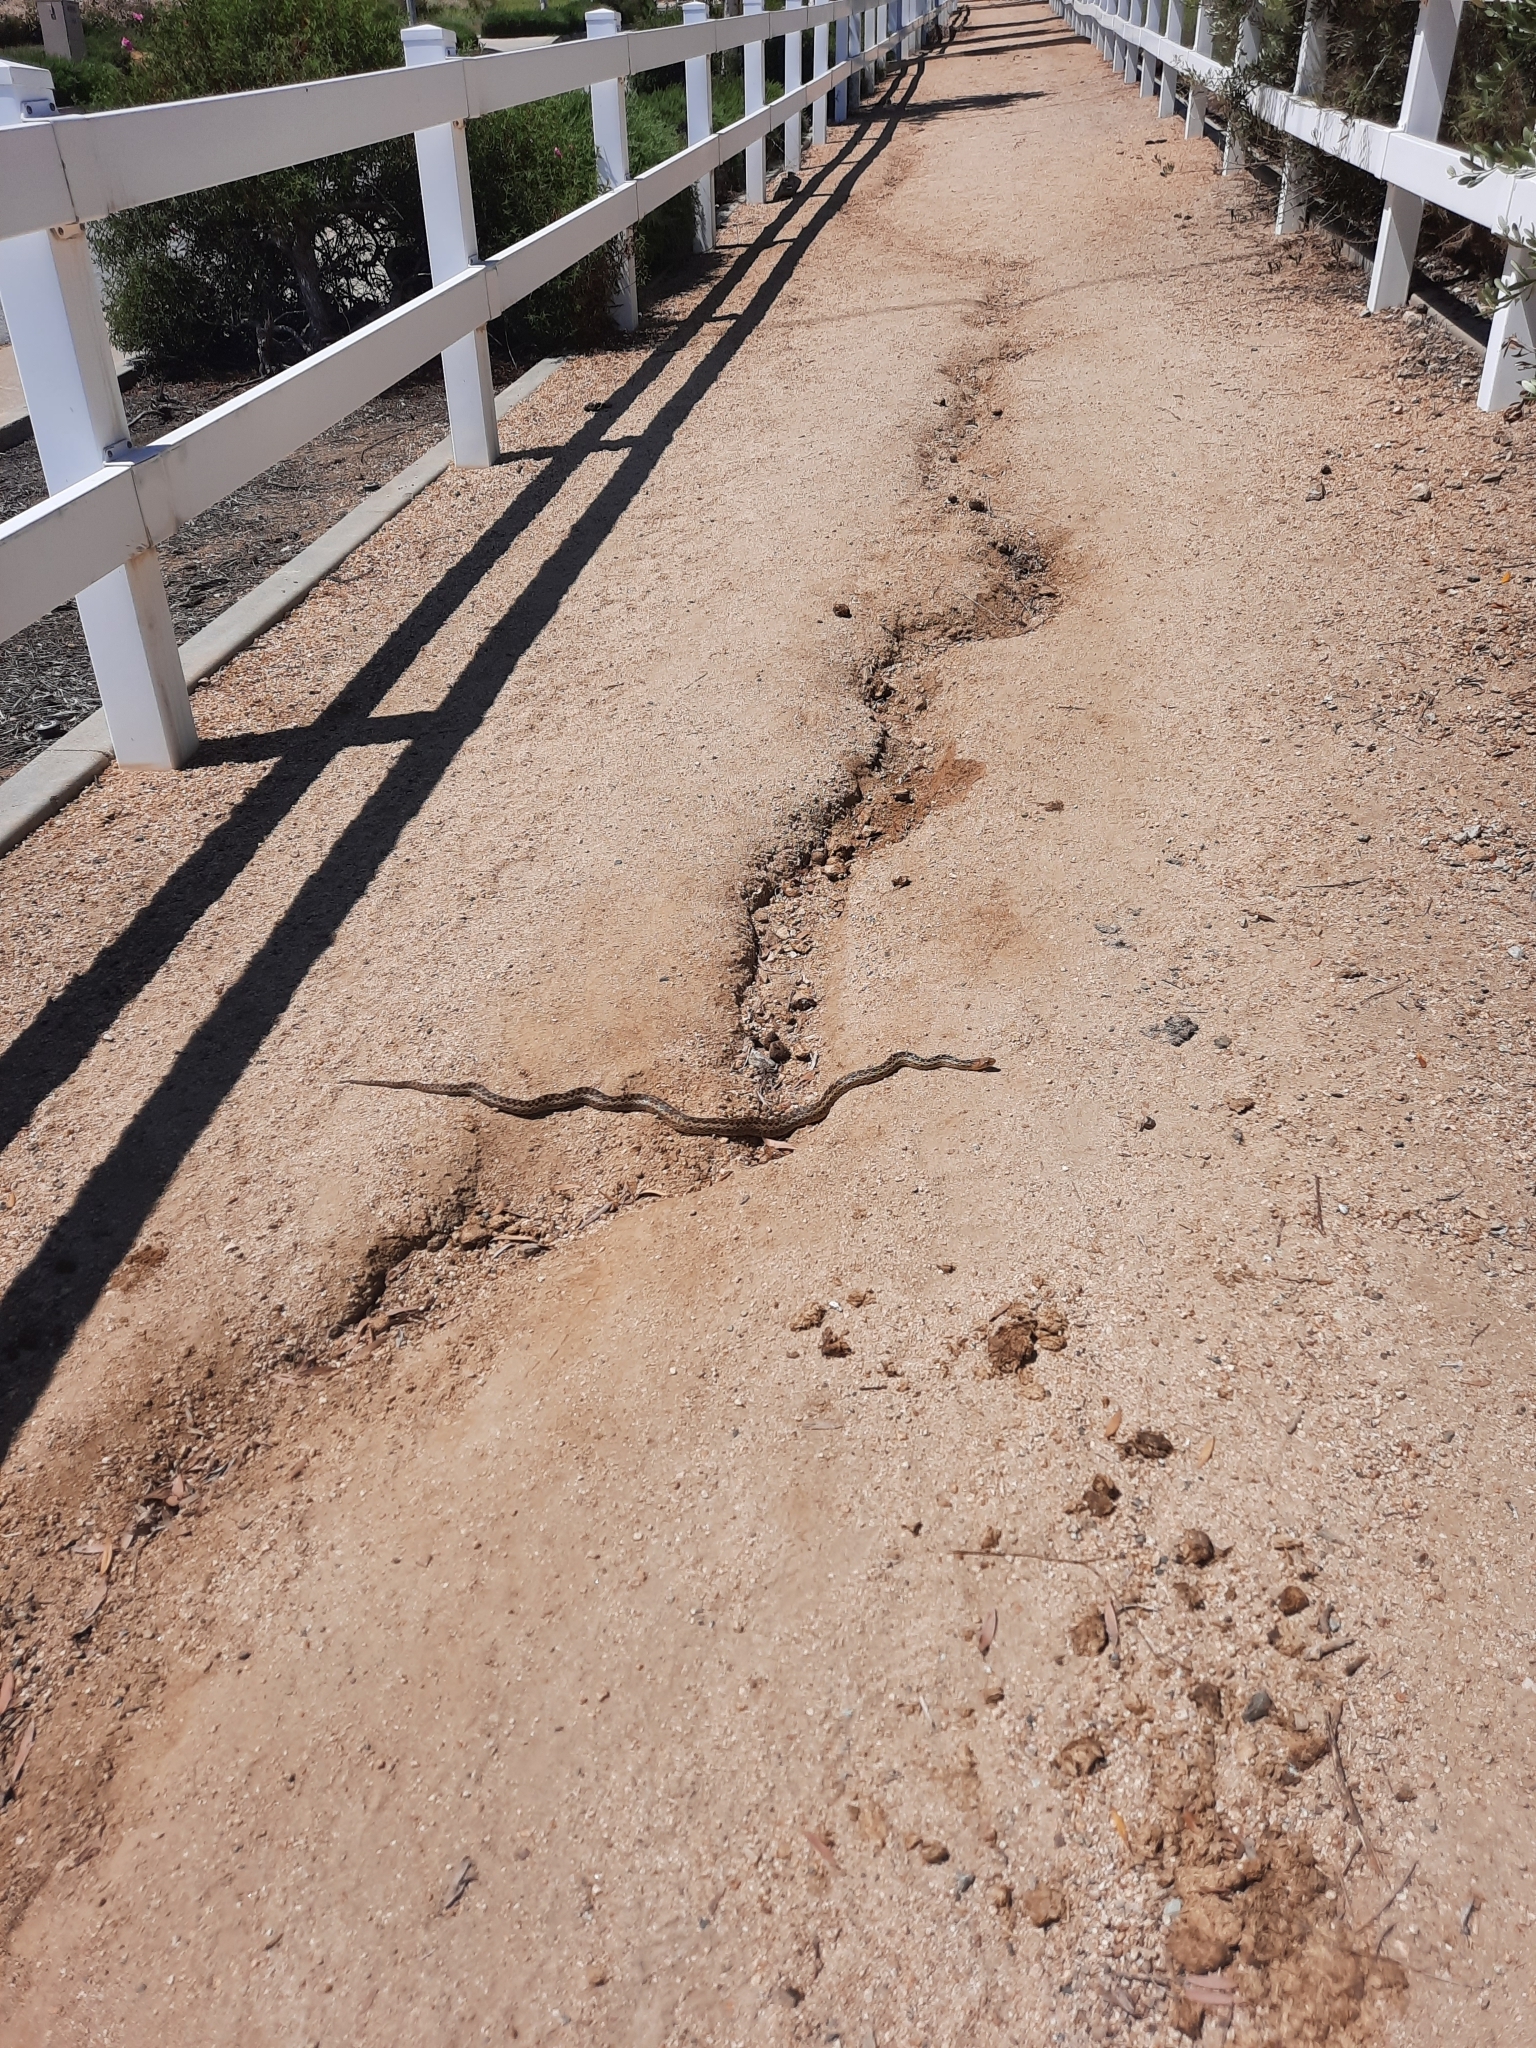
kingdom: Animalia
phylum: Chordata
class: Squamata
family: Colubridae
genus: Pituophis
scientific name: Pituophis catenifer
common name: Gopher snake
